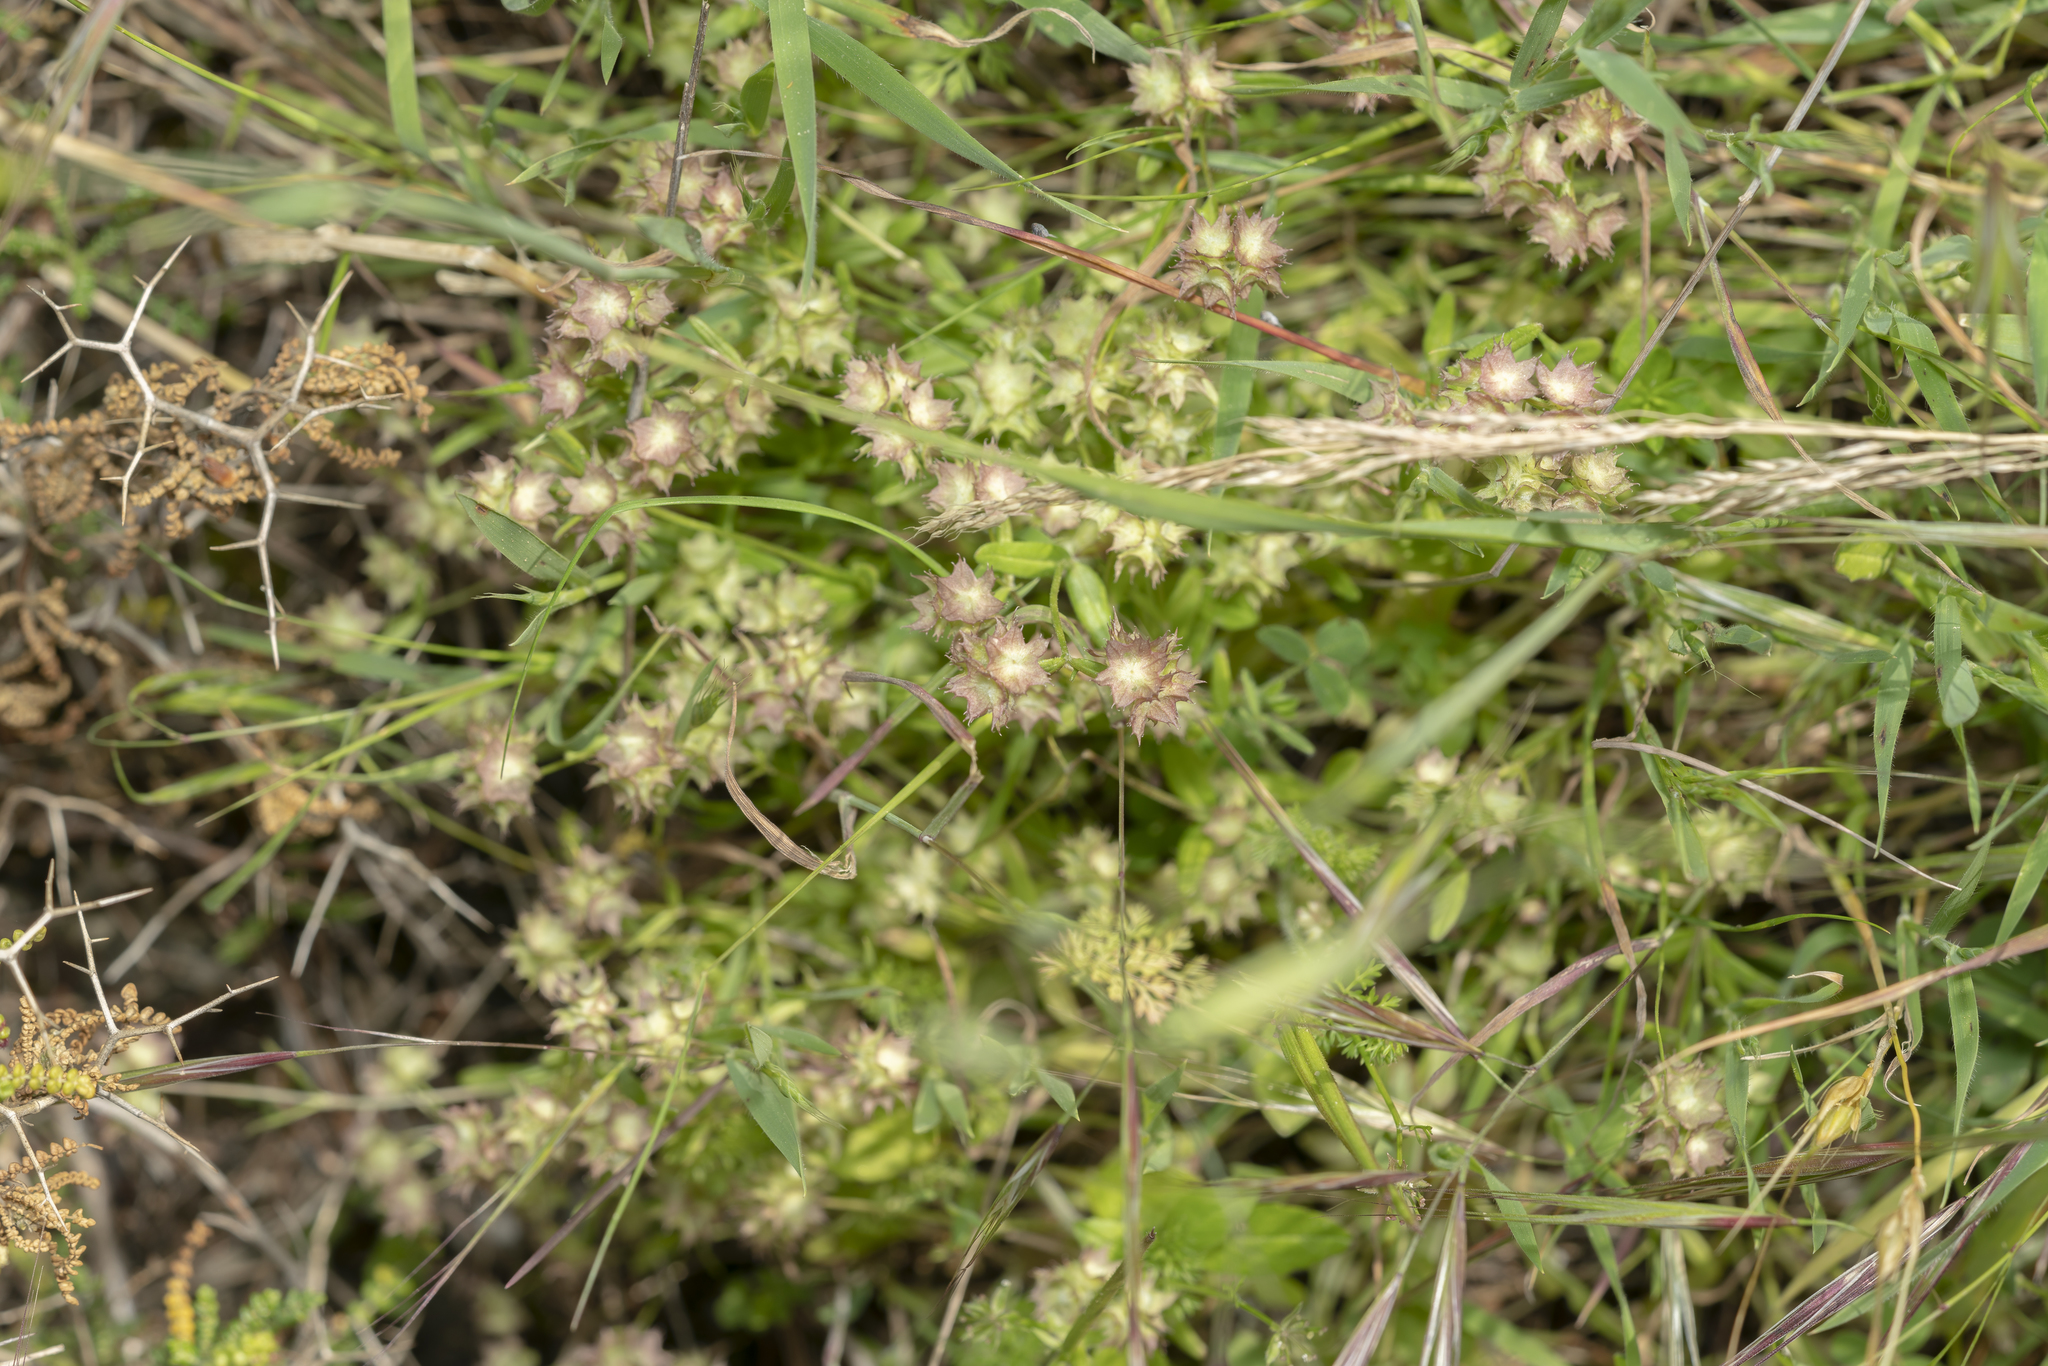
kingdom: Plantae
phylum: Tracheophyta
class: Magnoliopsida
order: Dipsacales
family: Caprifoliaceae
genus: Valerianella
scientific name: Valerianella obtusiloba
